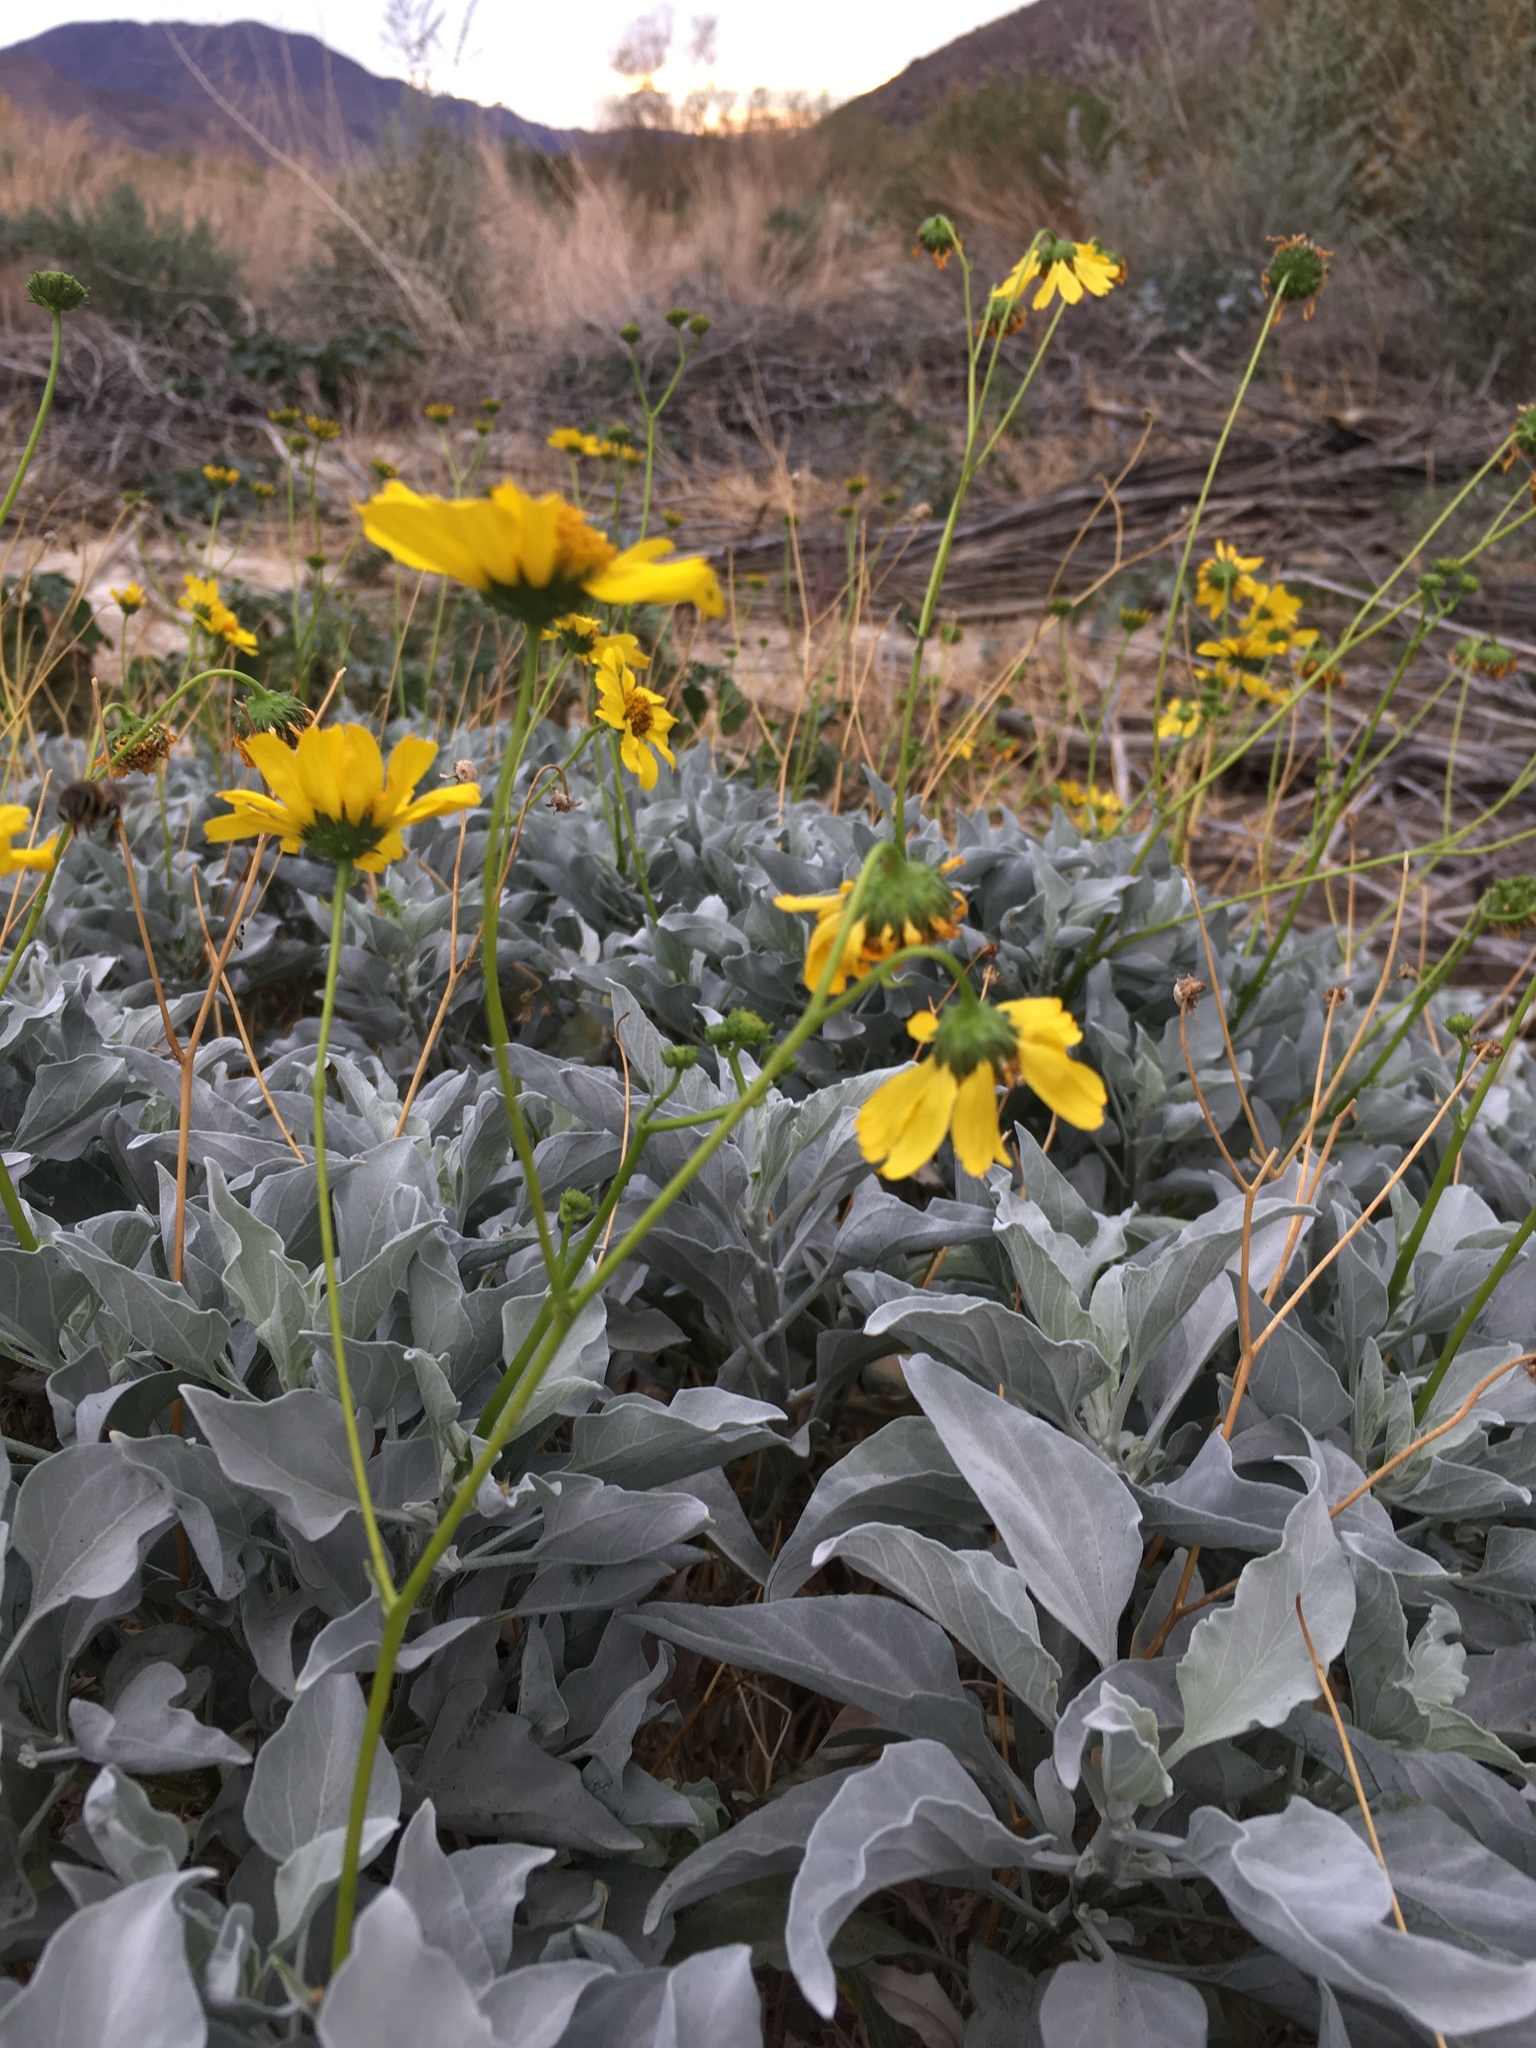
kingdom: Plantae
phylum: Tracheophyta
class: Magnoliopsida
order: Asterales
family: Asteraceae
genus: Encelia
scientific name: Encelia farinosa
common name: Brittlebush
